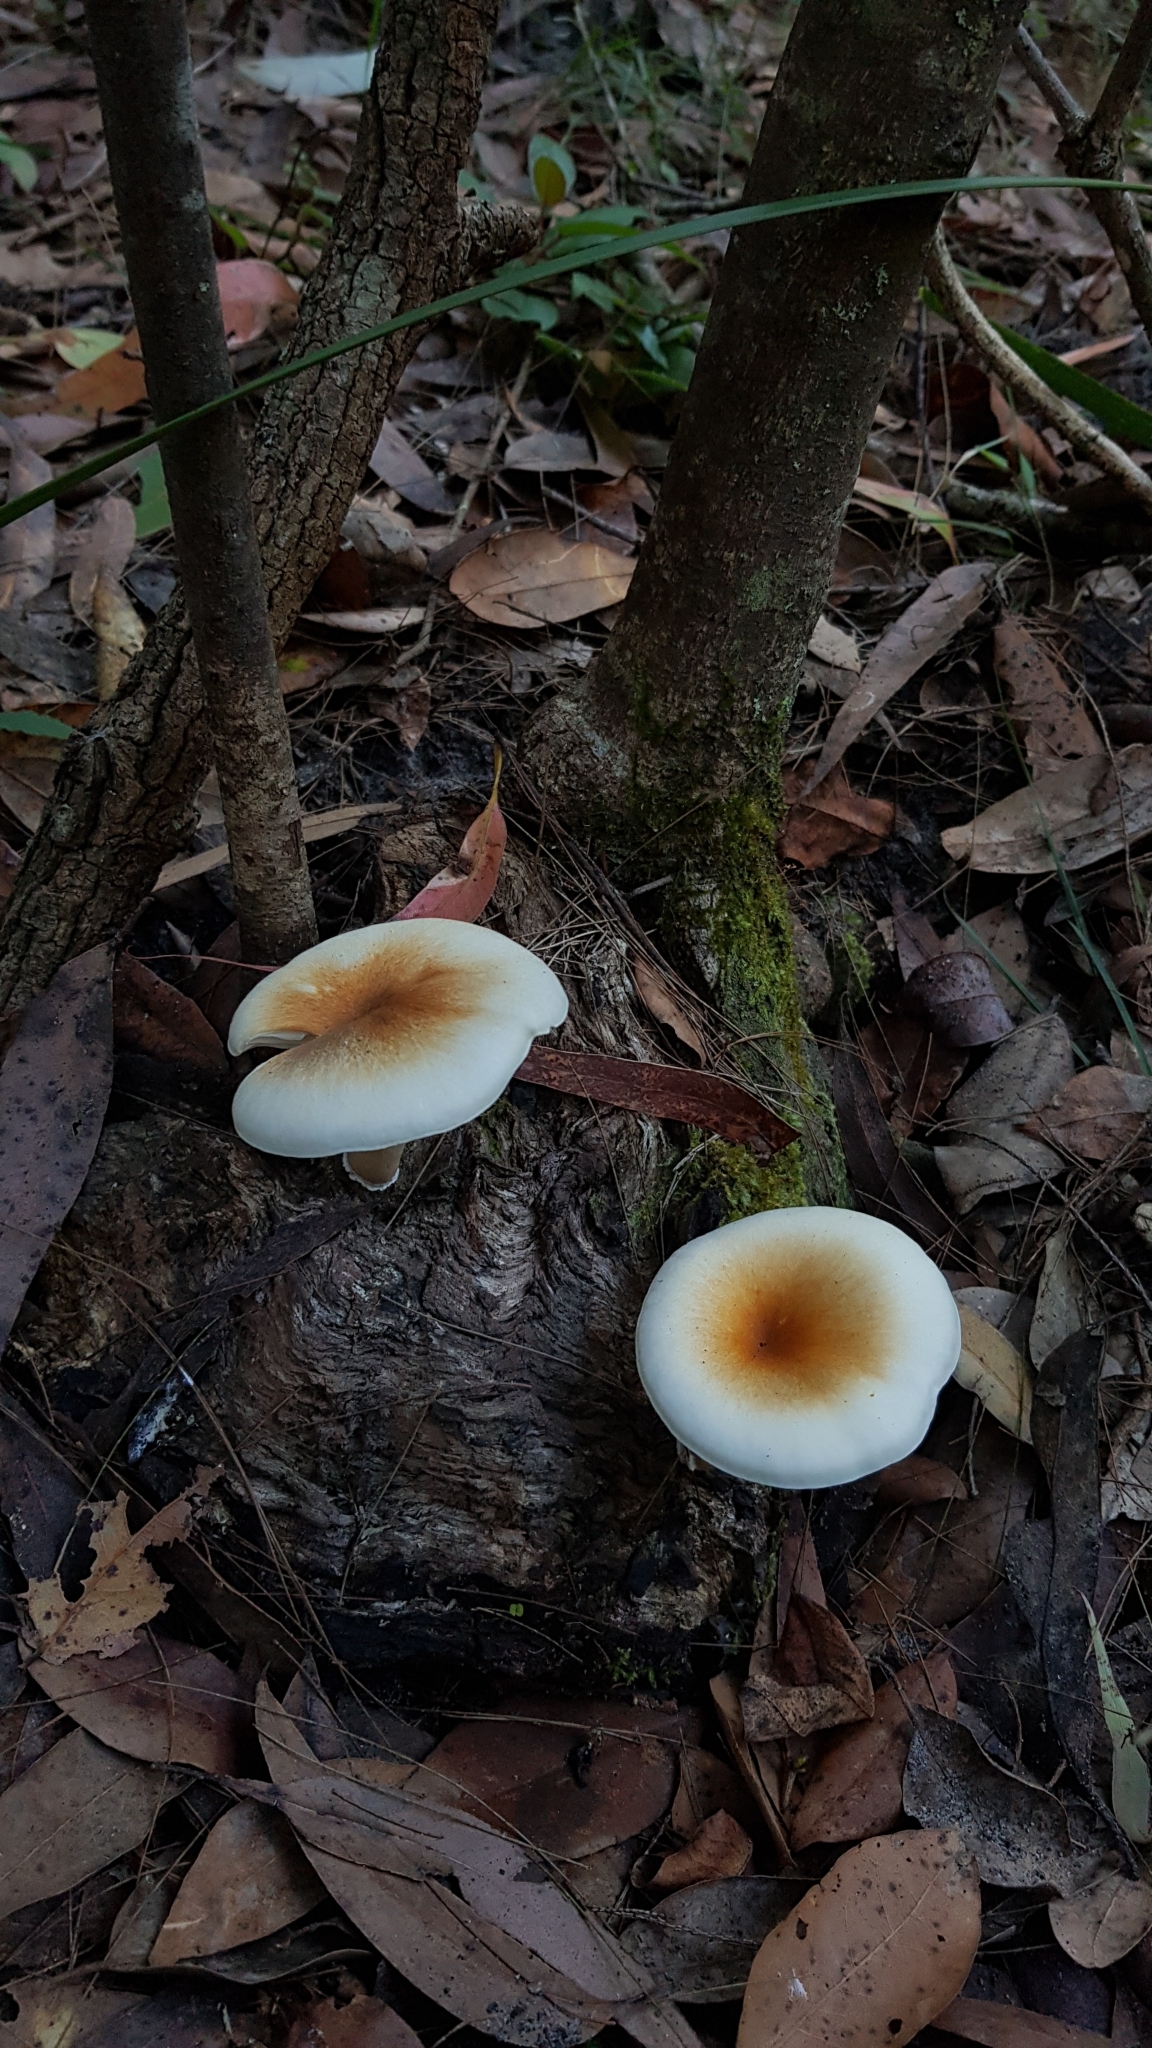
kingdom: Fungi
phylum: Basidiomycota
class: Agaricomycetes
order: Agaricales
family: Omphalotaceae
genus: Omphalotus
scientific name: Omphalotus nidiformis
